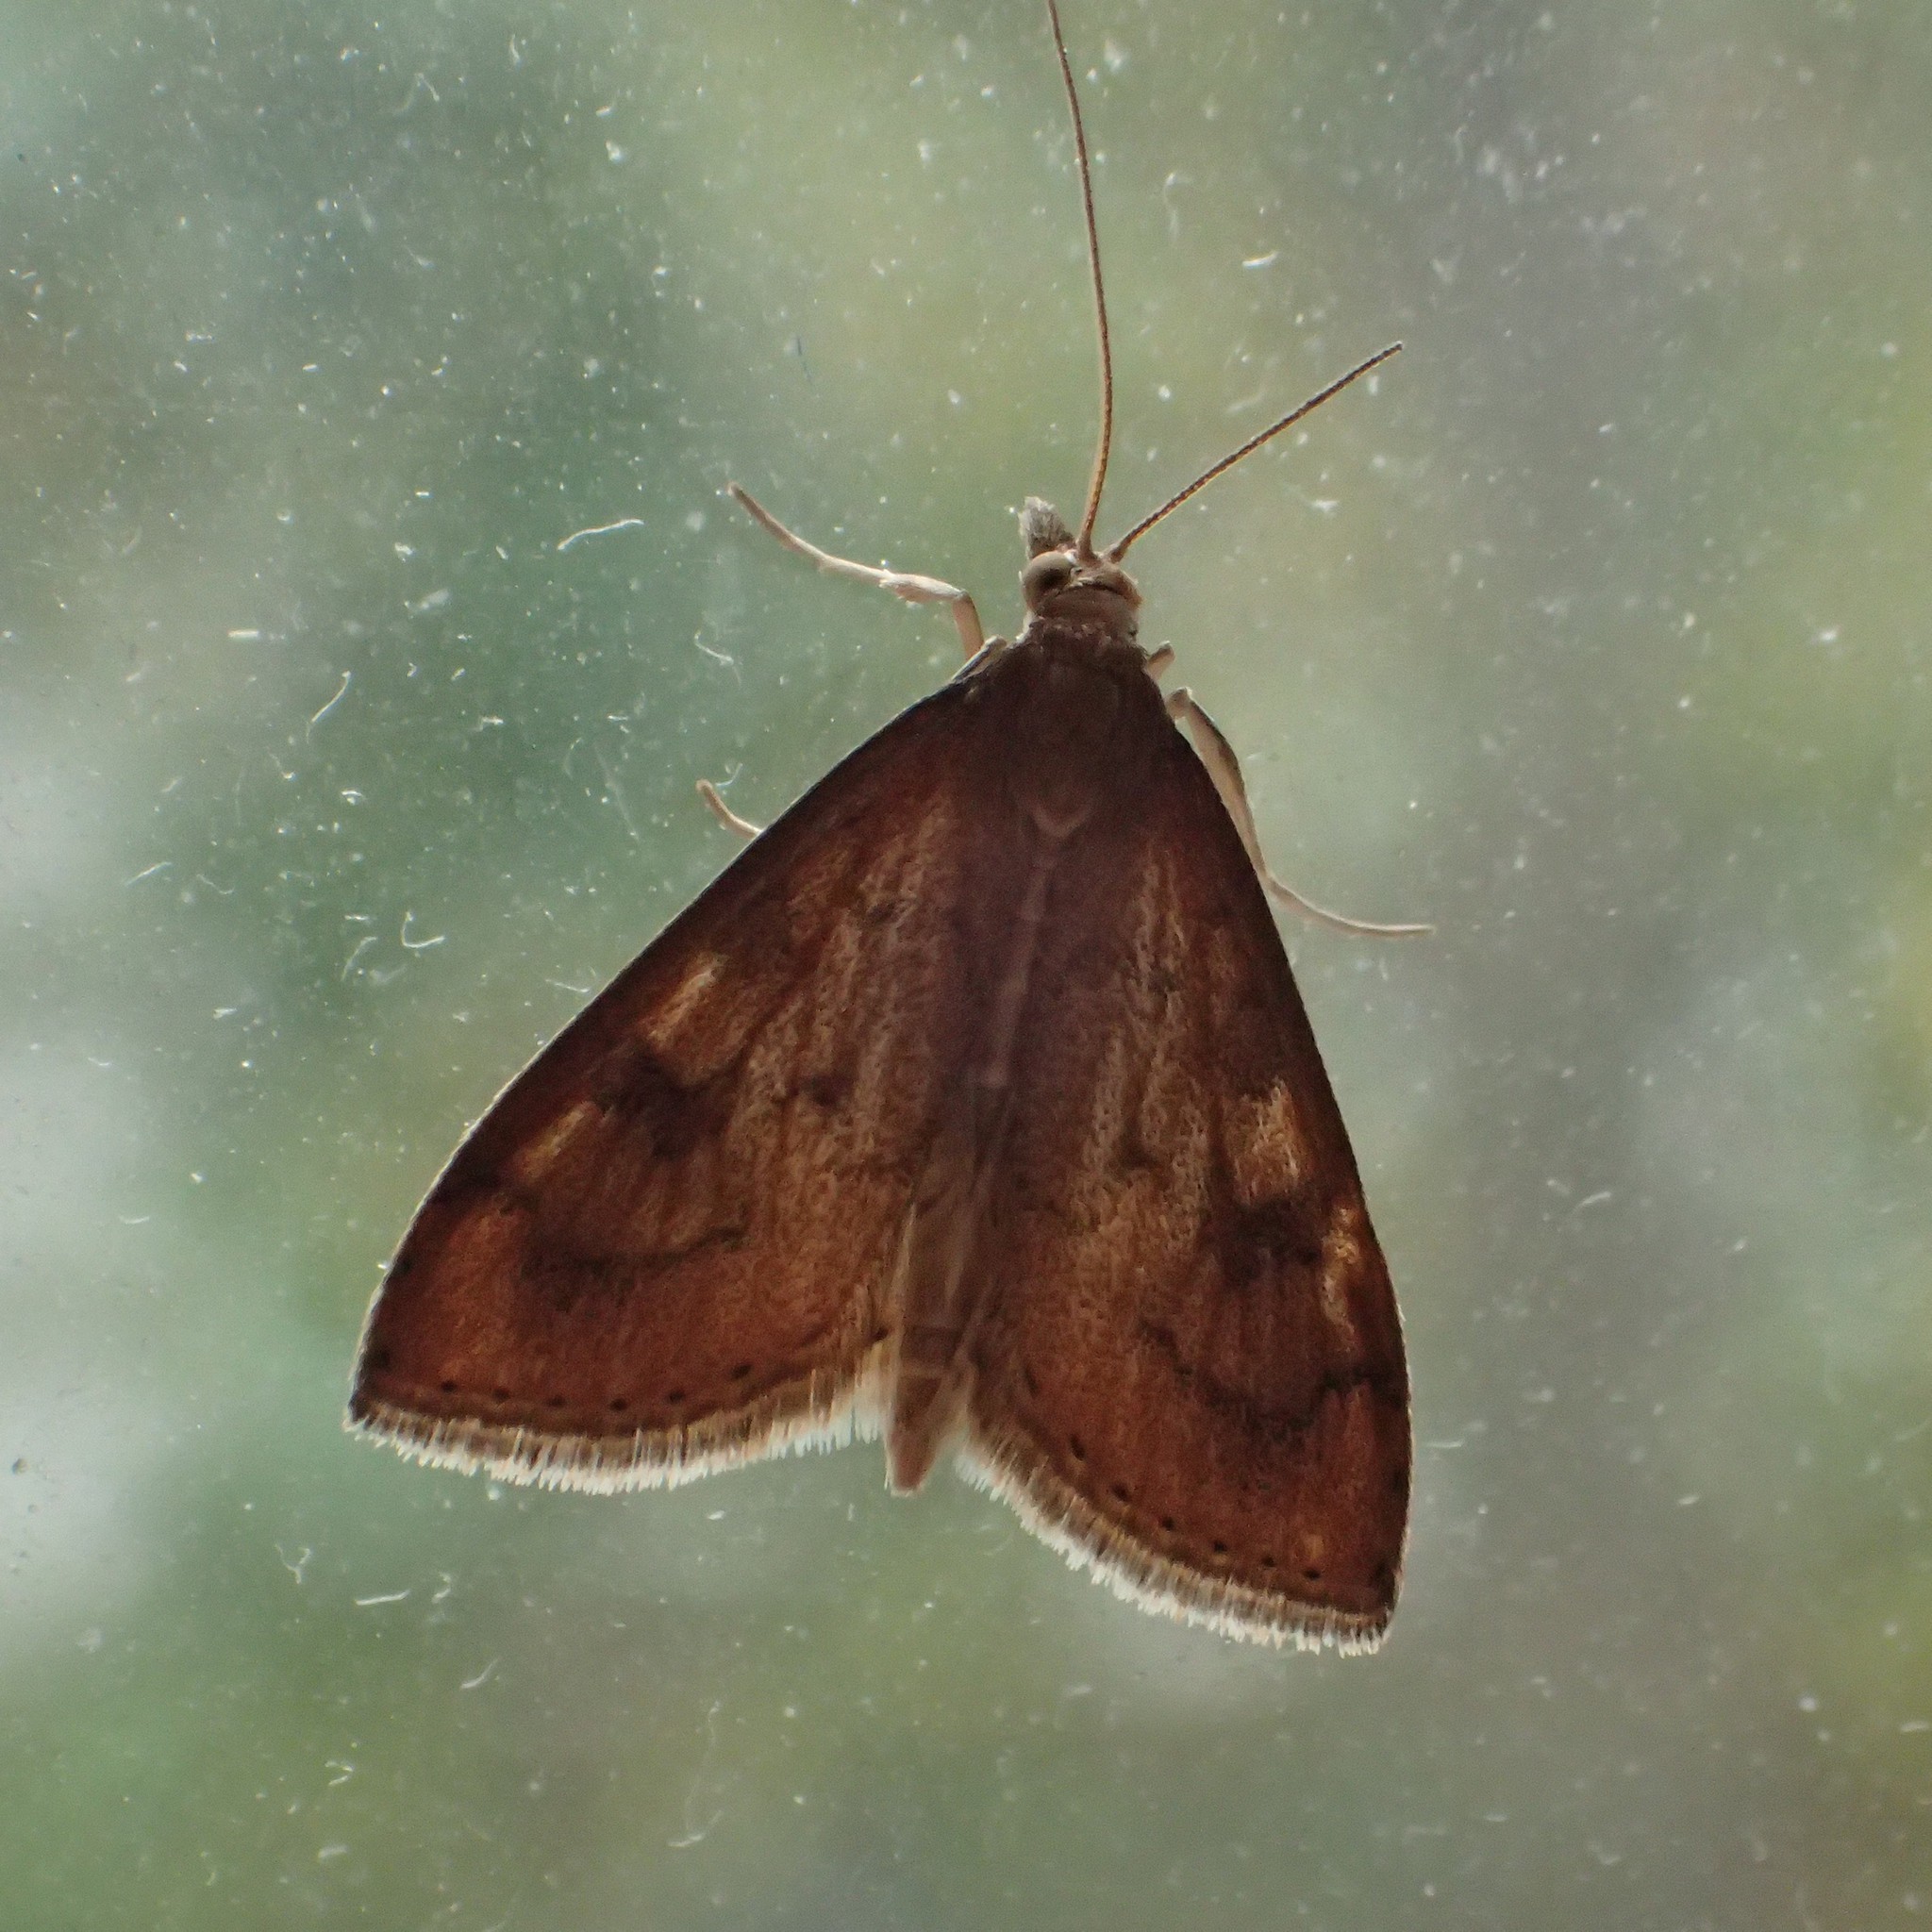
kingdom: Animalia
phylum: Arthropoda
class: Insecta
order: Lepidoptera
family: Crambidae
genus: Udea
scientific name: Udea rubigalis
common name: Celery leaftier moth
